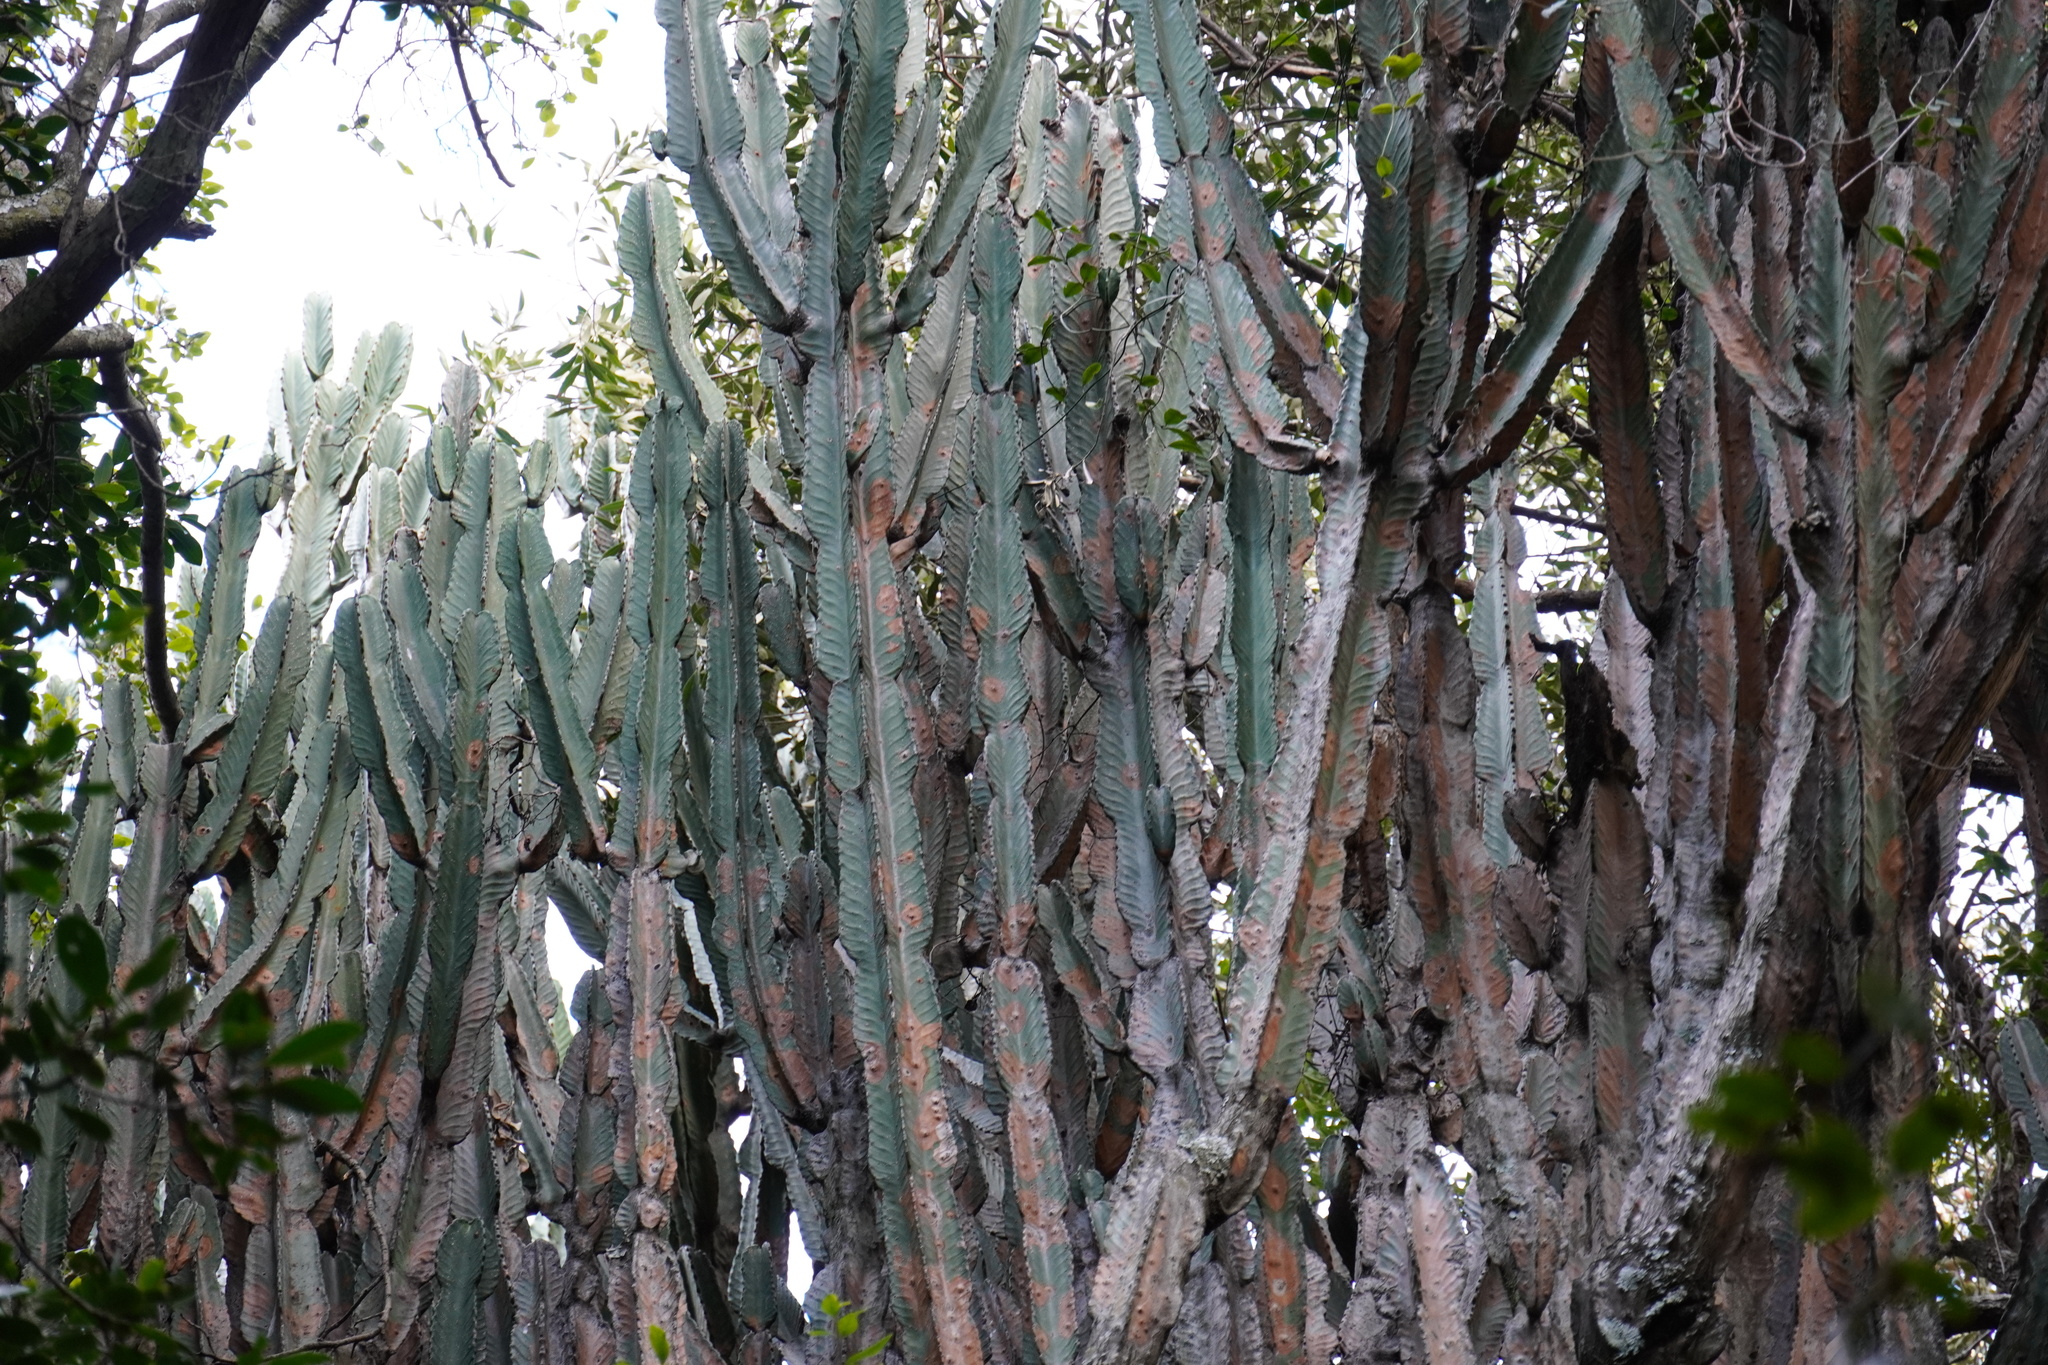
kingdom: Plantae
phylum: Tracheophyta
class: Magnoliopsida
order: Malpighiales
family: Euphorbiaceae
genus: Euphorbia
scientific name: Euphorbia ingens
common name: Cactus spurge
